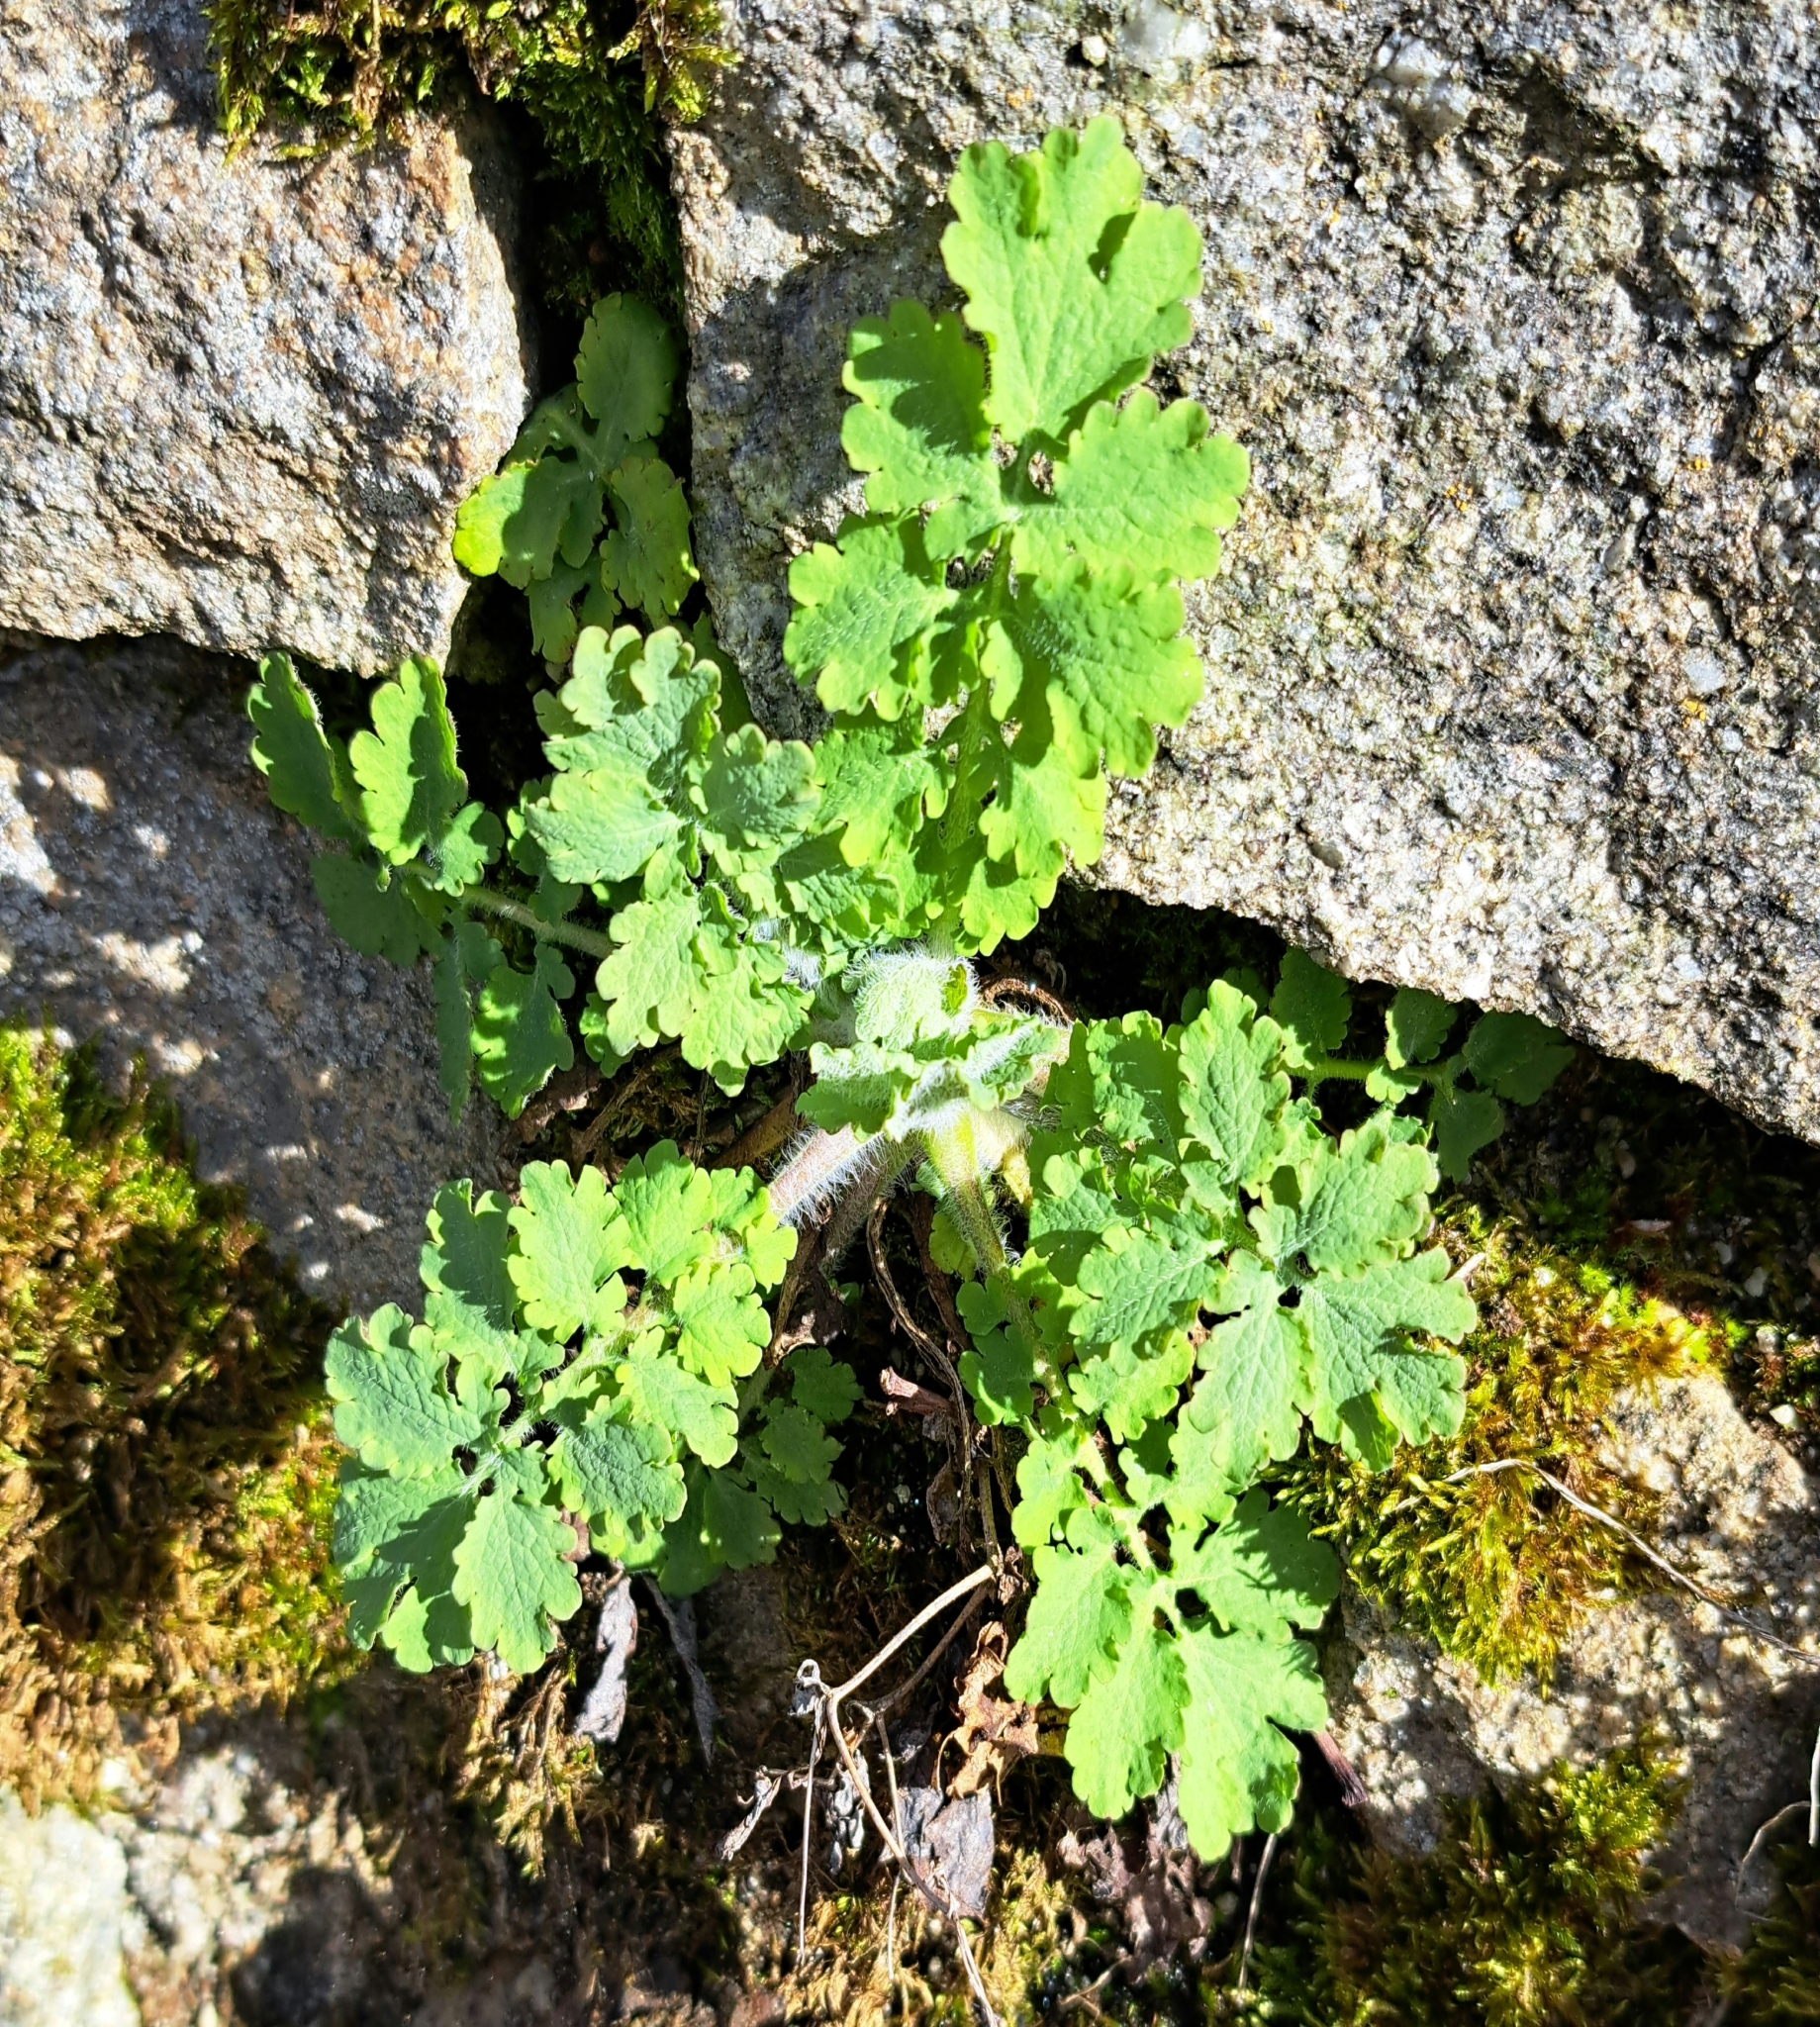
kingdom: Plantae
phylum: Tracheophyta
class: Magnoliopsida
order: Ranunculales
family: Papaveraceae
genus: Chelidonium
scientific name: Chelidonium majus
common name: Greater celandine
